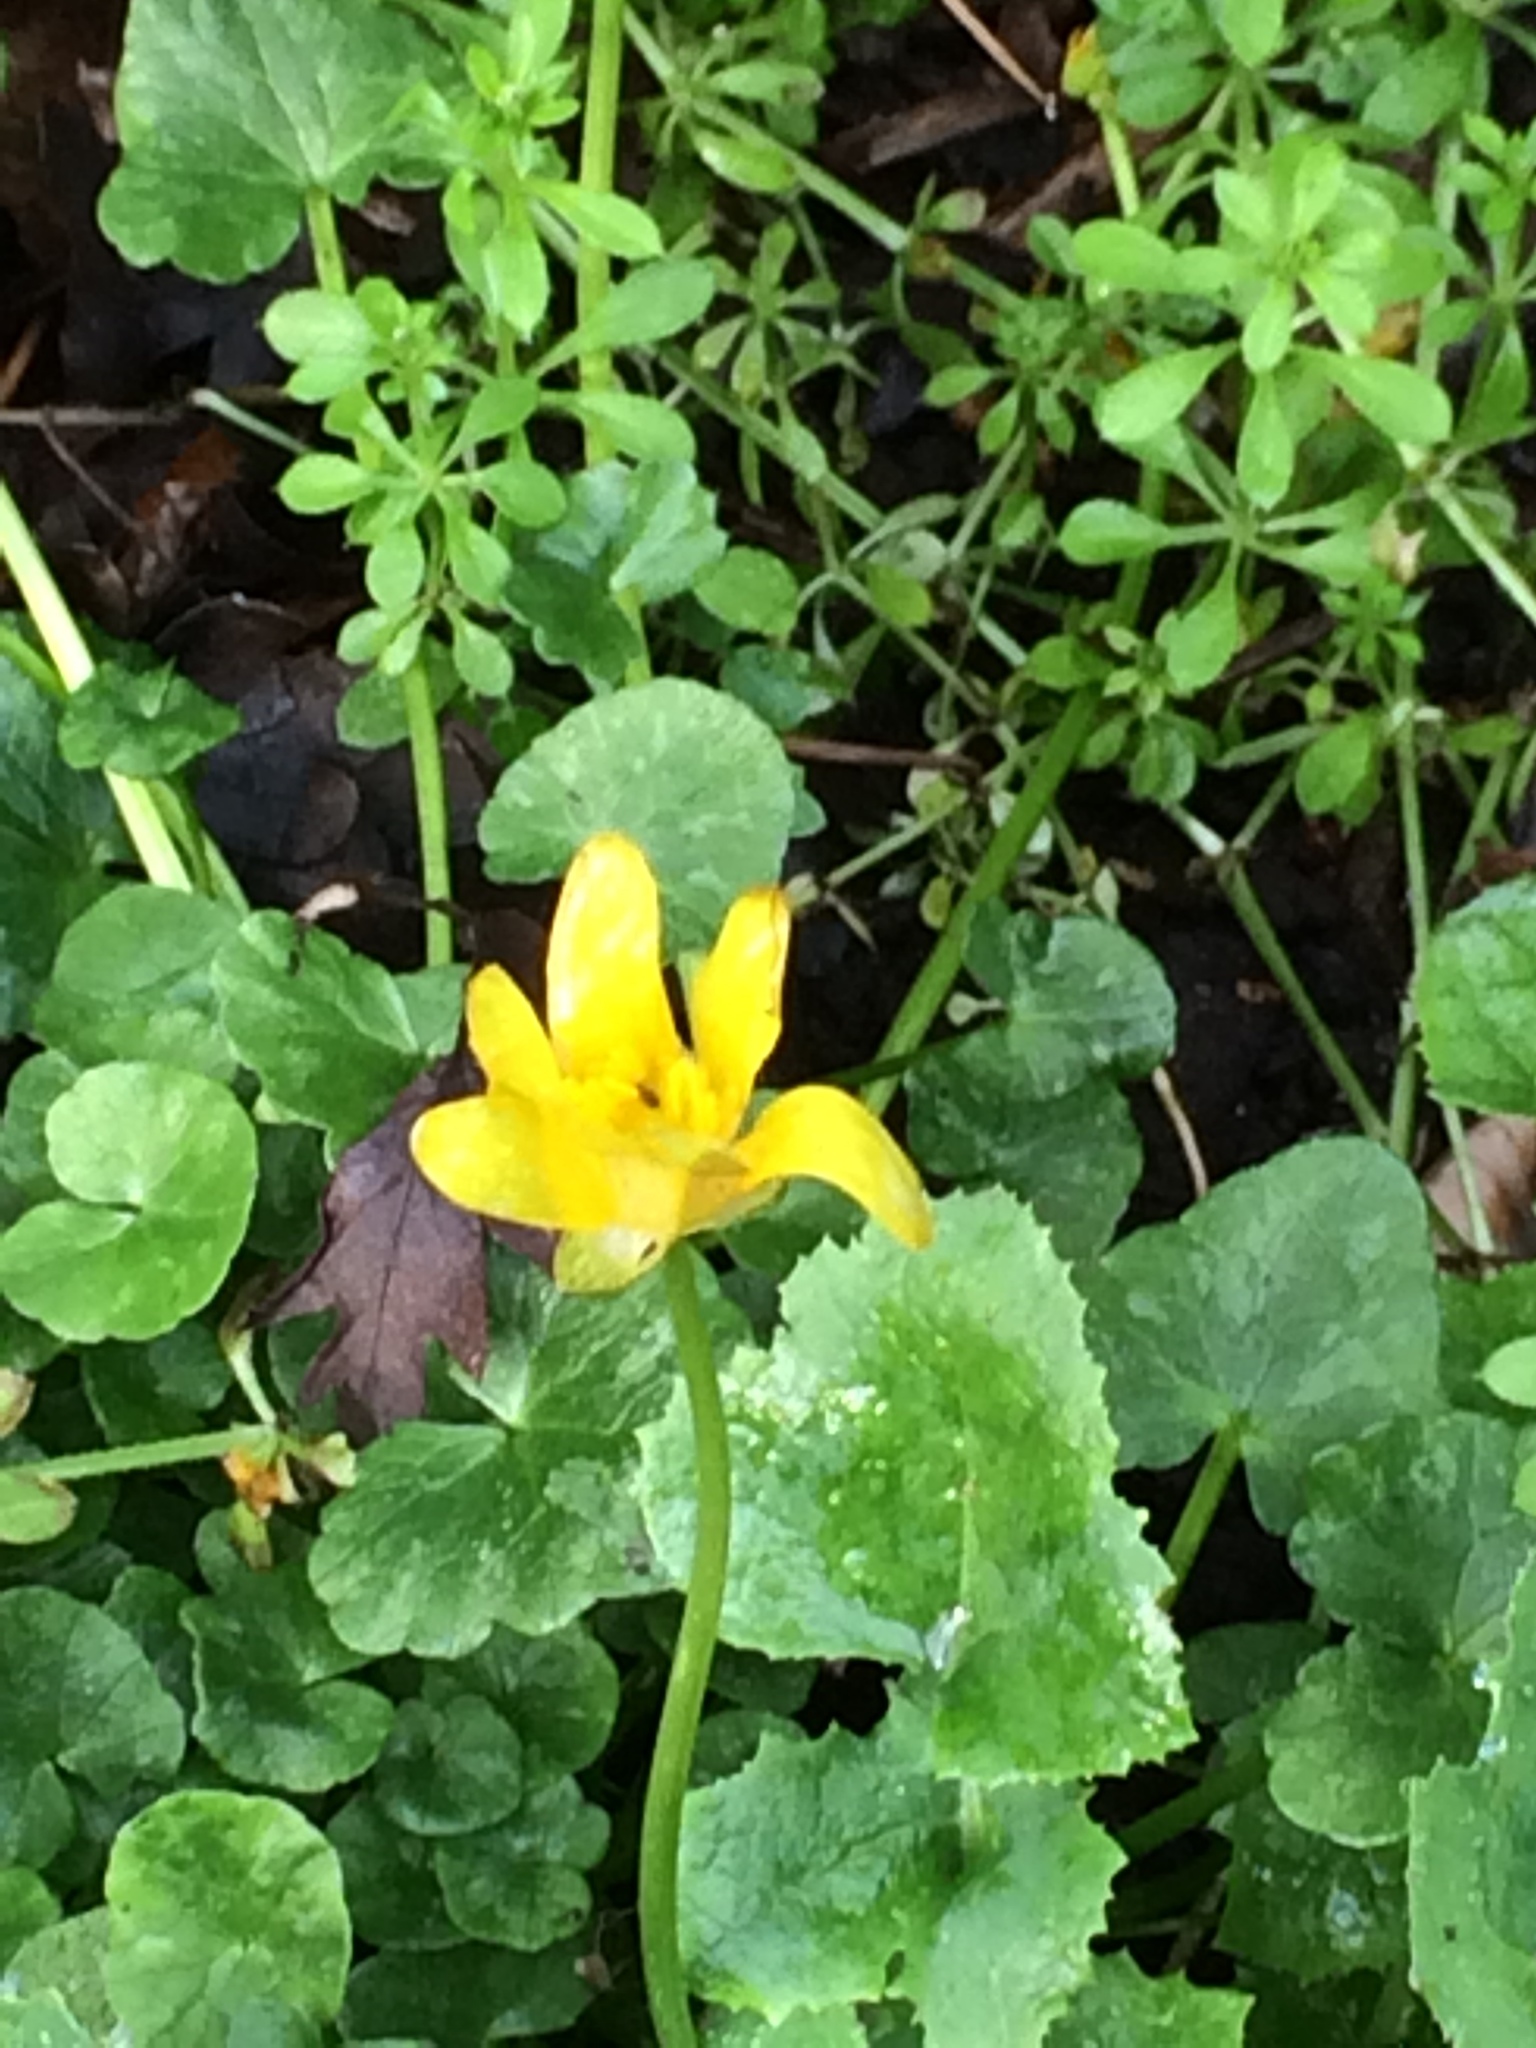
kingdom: Plantae
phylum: Tracheophyta
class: Magnoliopsida
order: Ranunculales
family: Ranunculaceae
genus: Ficaria
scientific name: Ficaria verna
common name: Lesser celandine
